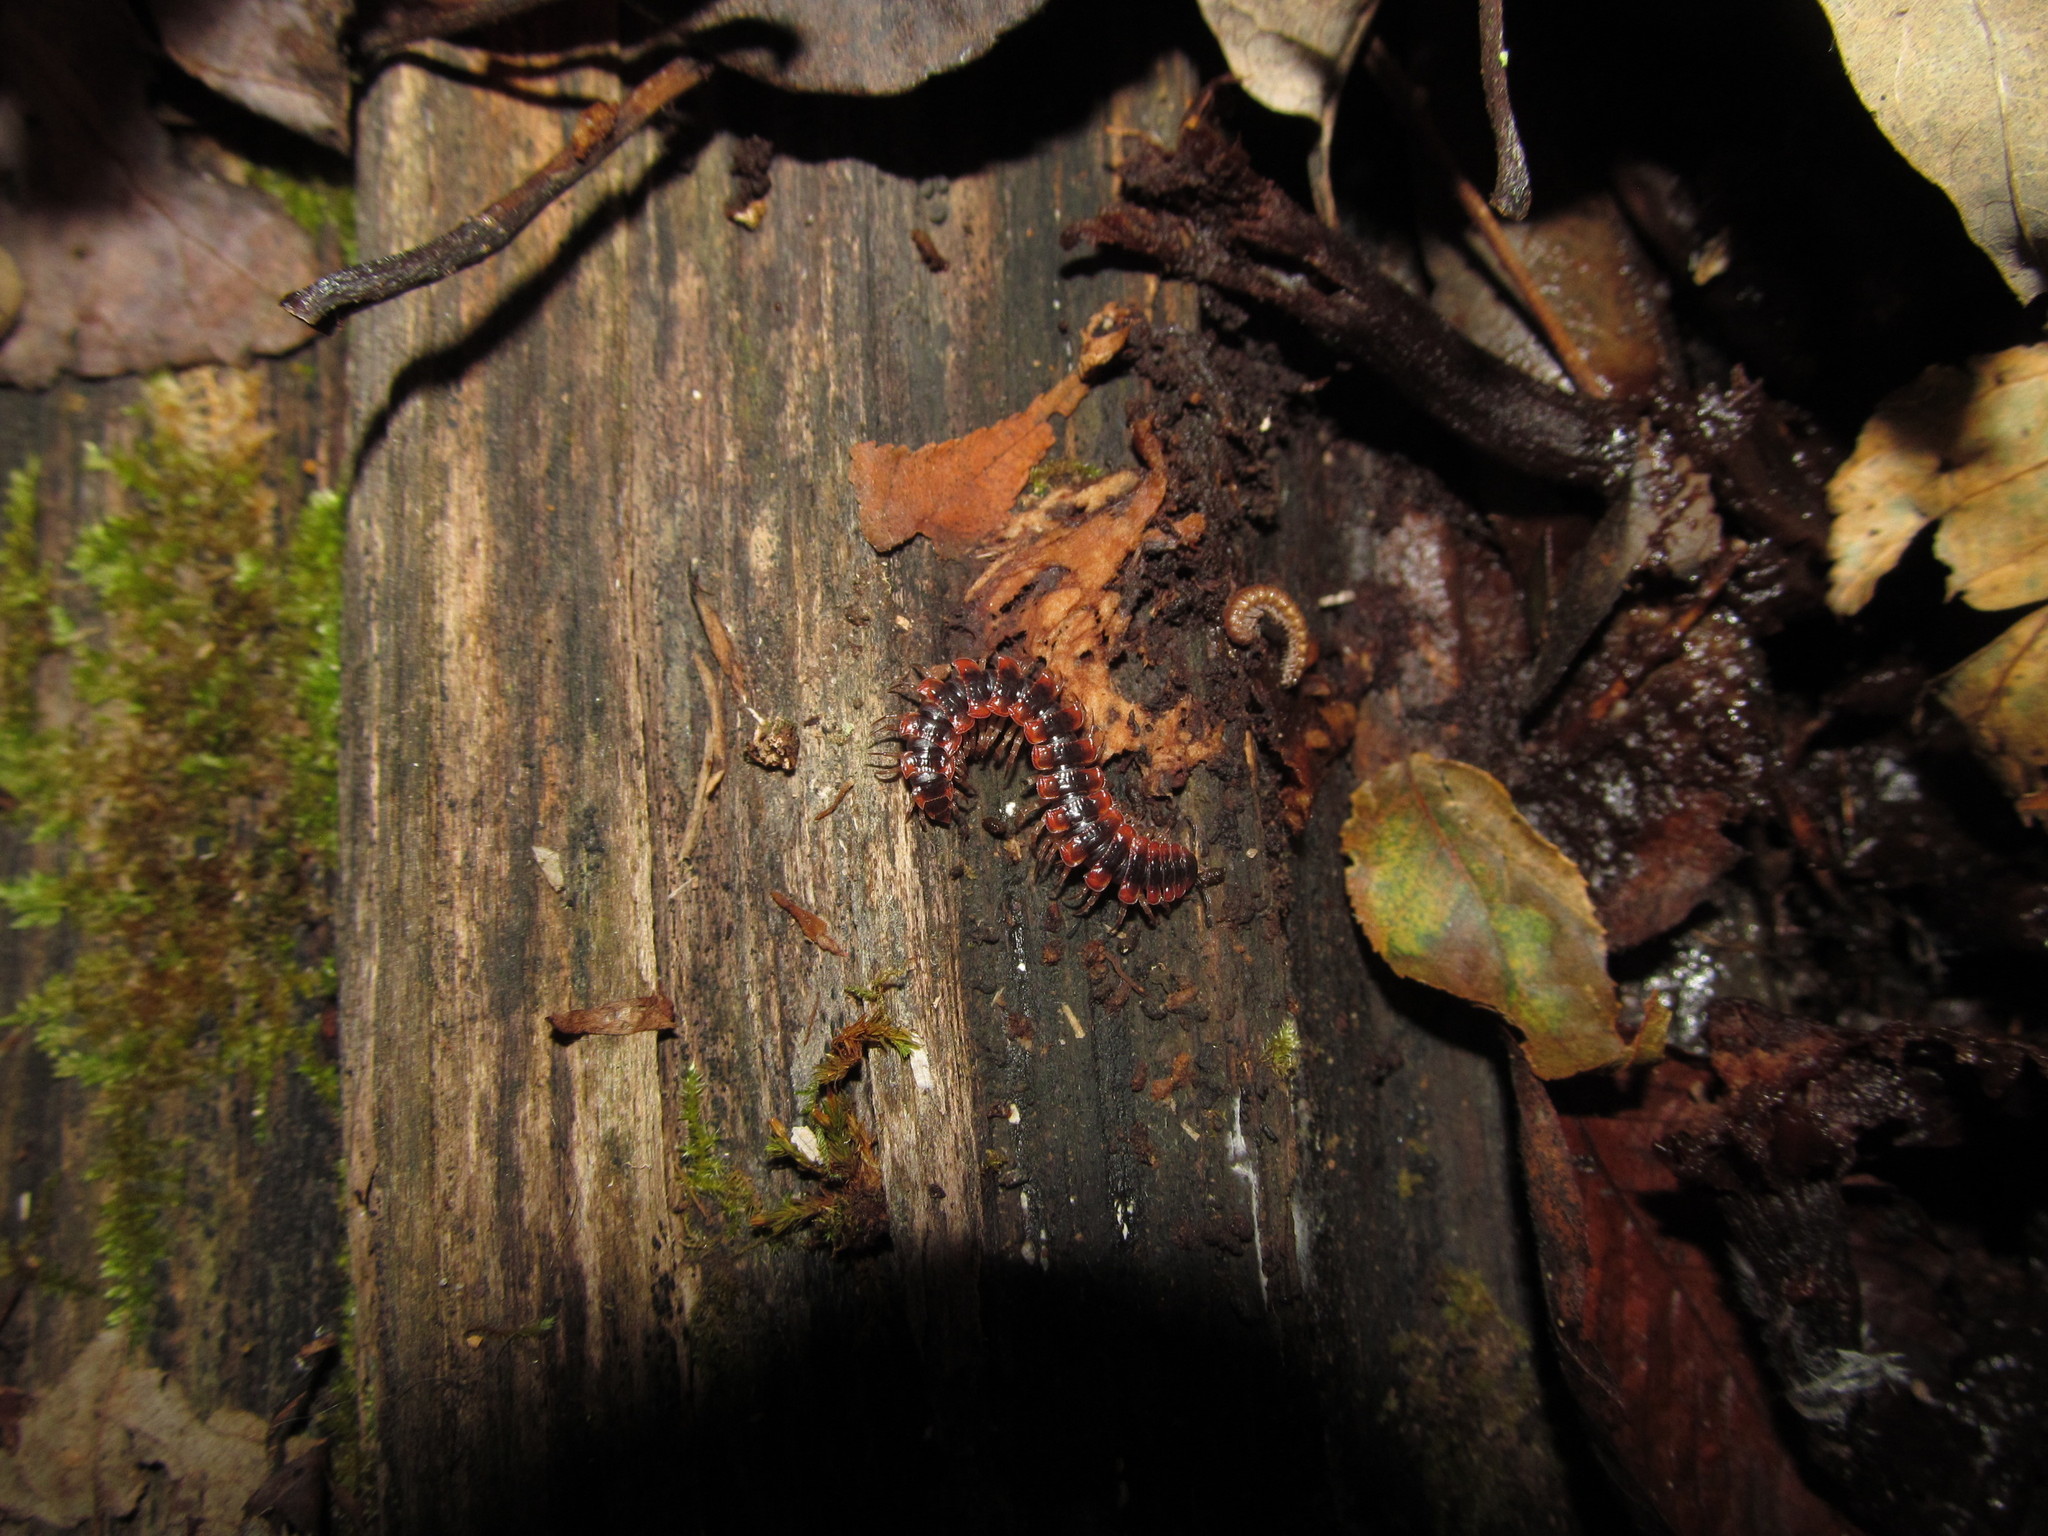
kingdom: Animalia
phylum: Arthropoda
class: Diplopoda
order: Polydesmida
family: Polydesmidae
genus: Pseudopolydesmus
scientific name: Pseudopolydesmus canadensis
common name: Canadian flat-back millipede
